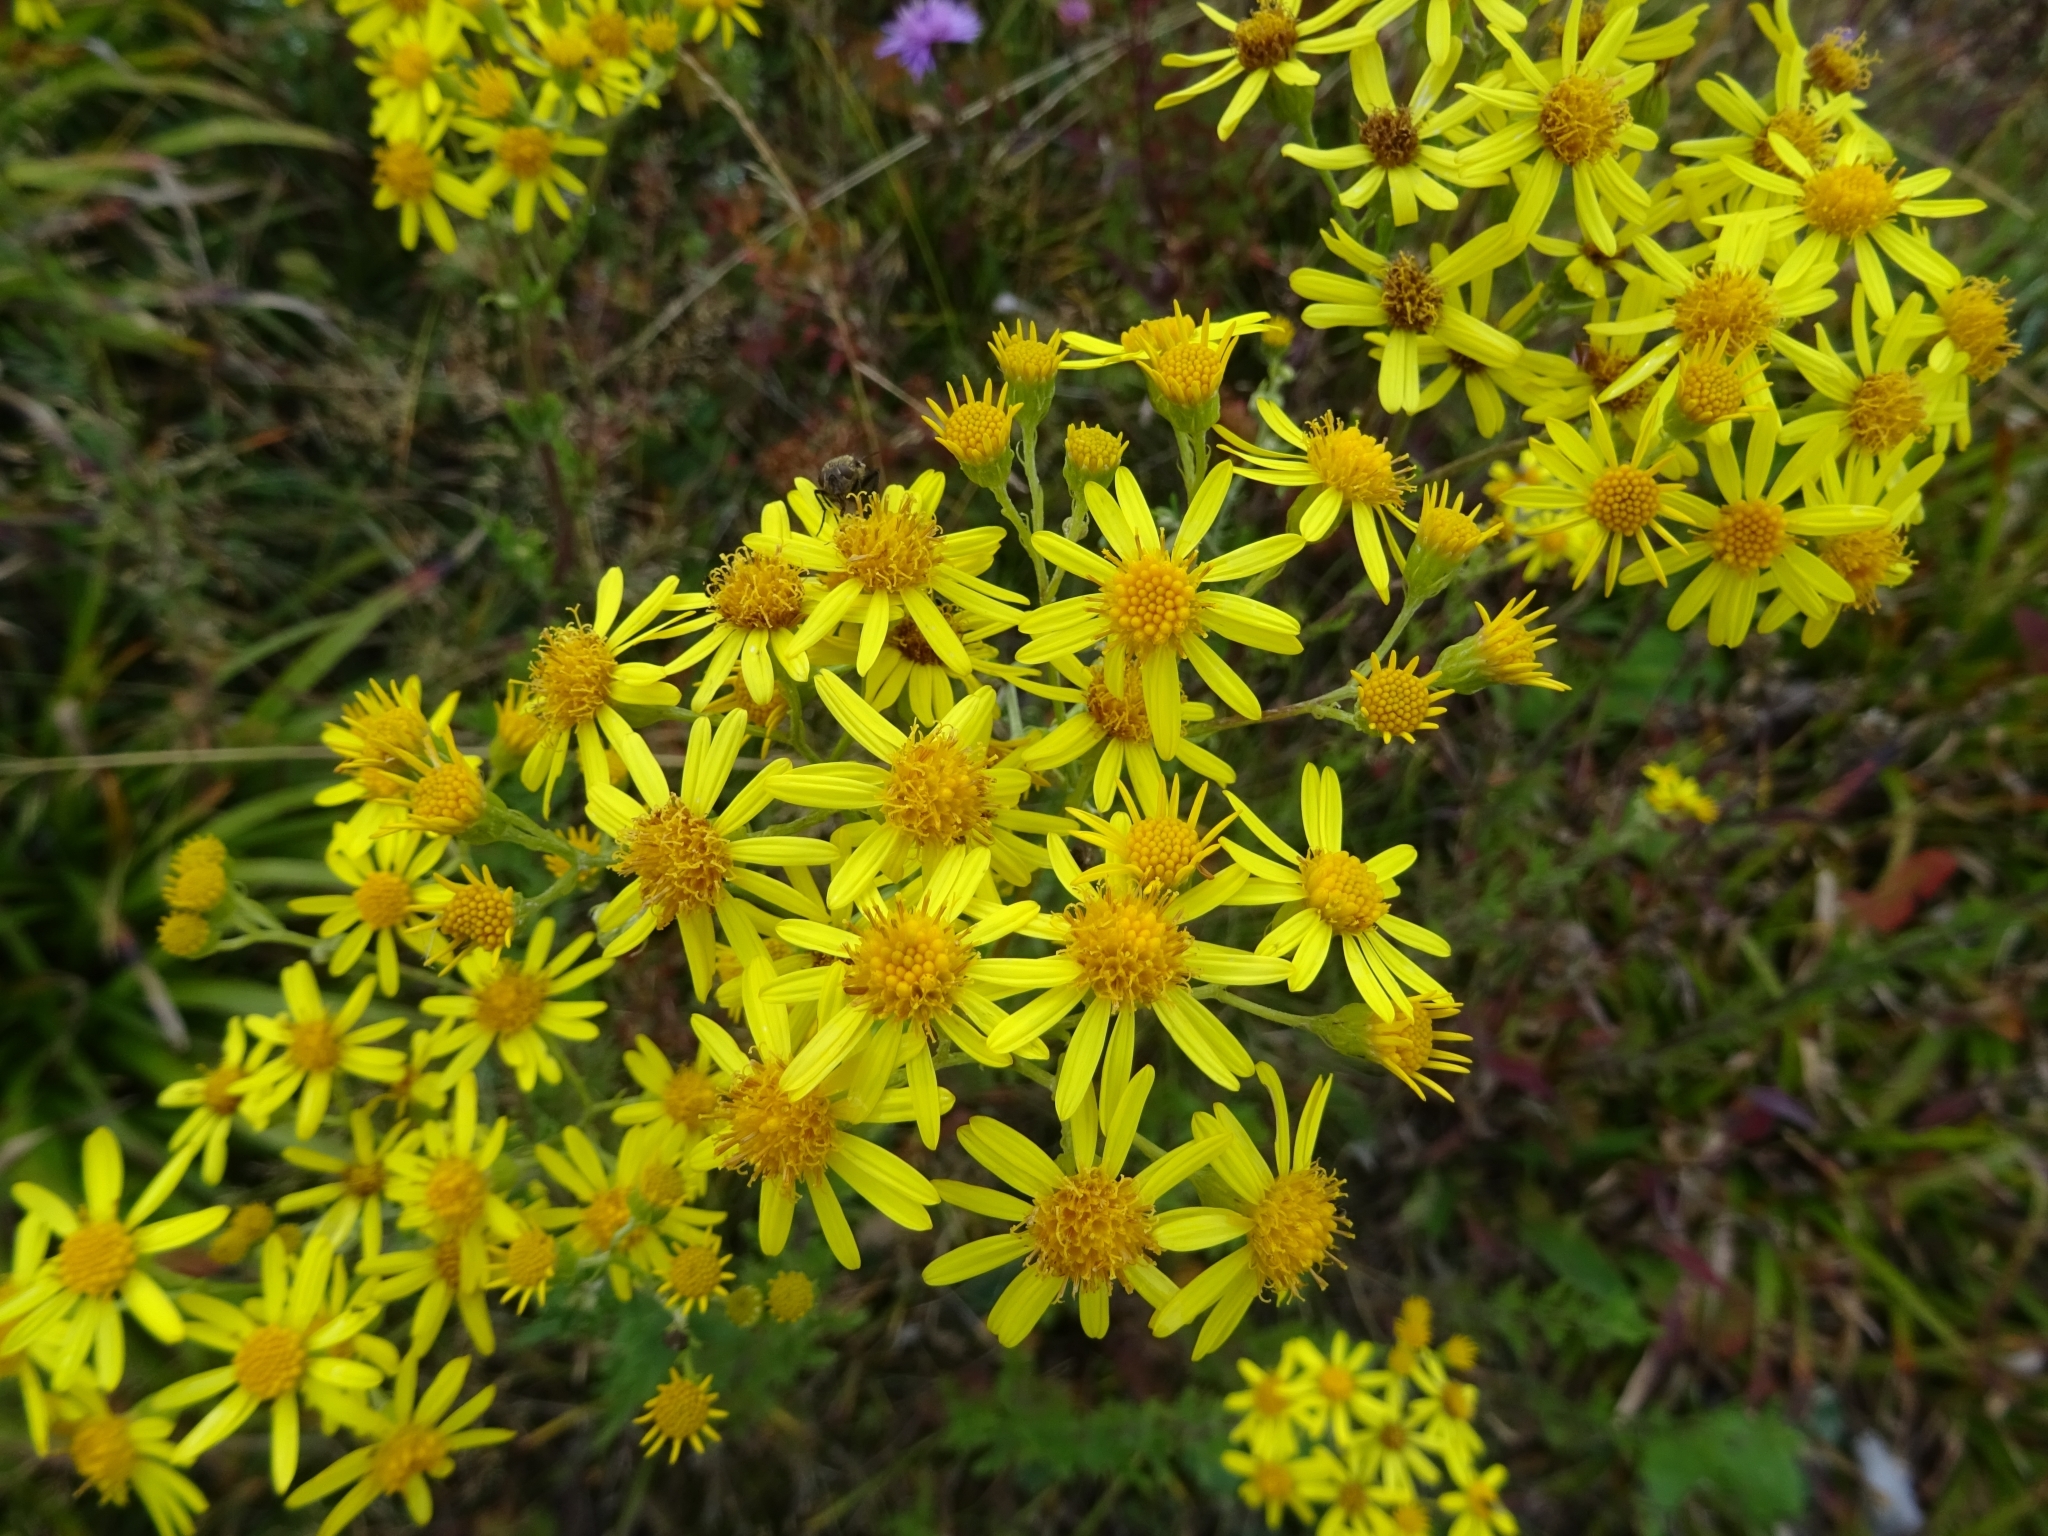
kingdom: Plantae
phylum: Tracheophyta
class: Magnoliopsida
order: Asterales
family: Asteraceae
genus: Jacobaea
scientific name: Jacobaea vulgaris
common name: Stinking willie
